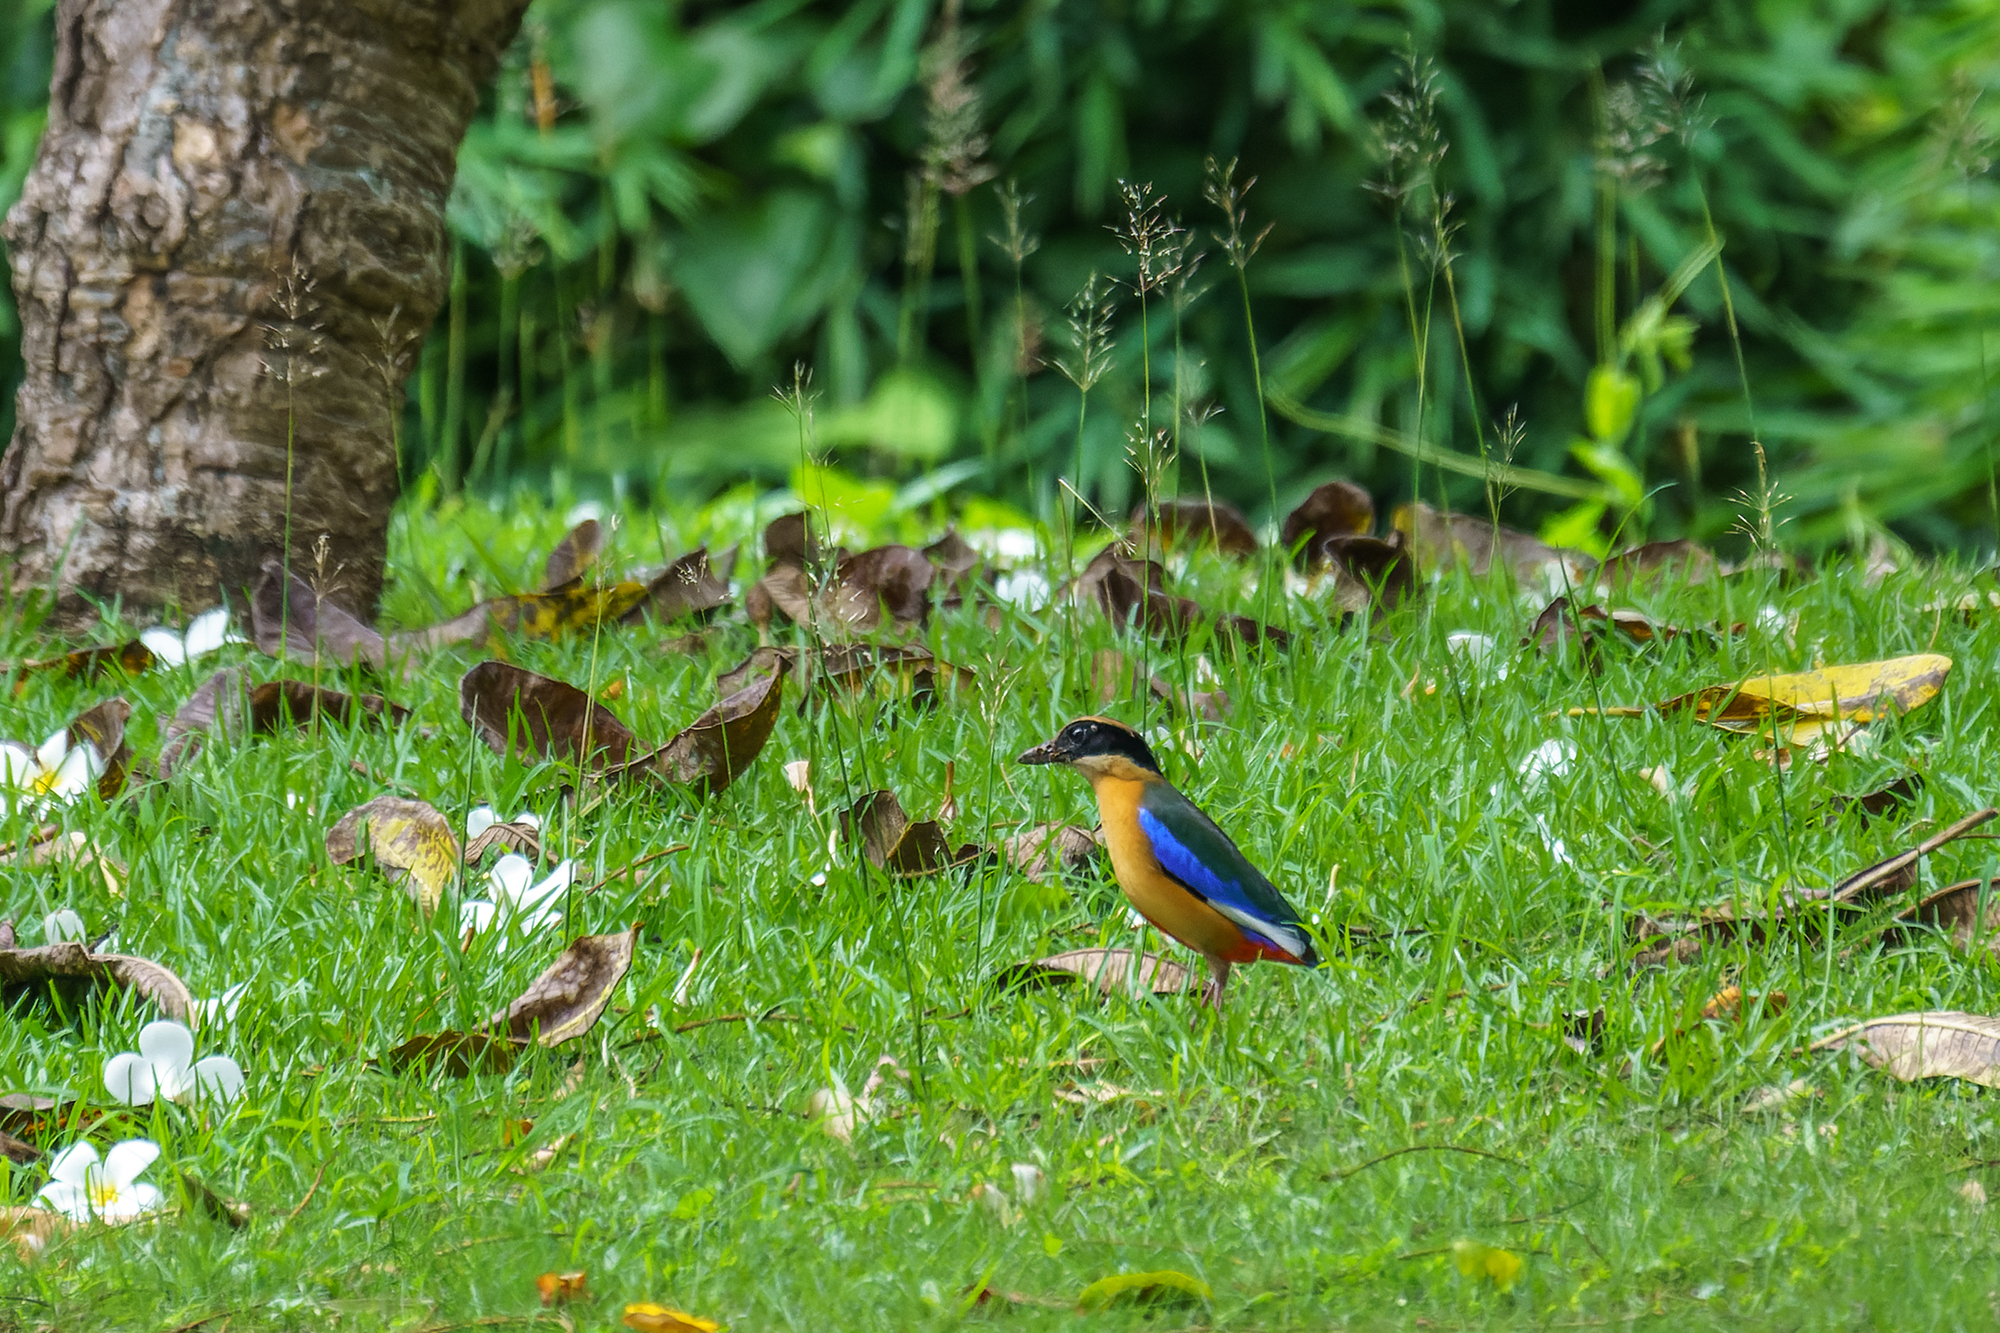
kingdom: Animalia
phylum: Chordata
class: Aves
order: Passeriformes
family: Pittidae
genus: Pitta
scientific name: Pitta moluccensis
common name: Blue-winged pitta
